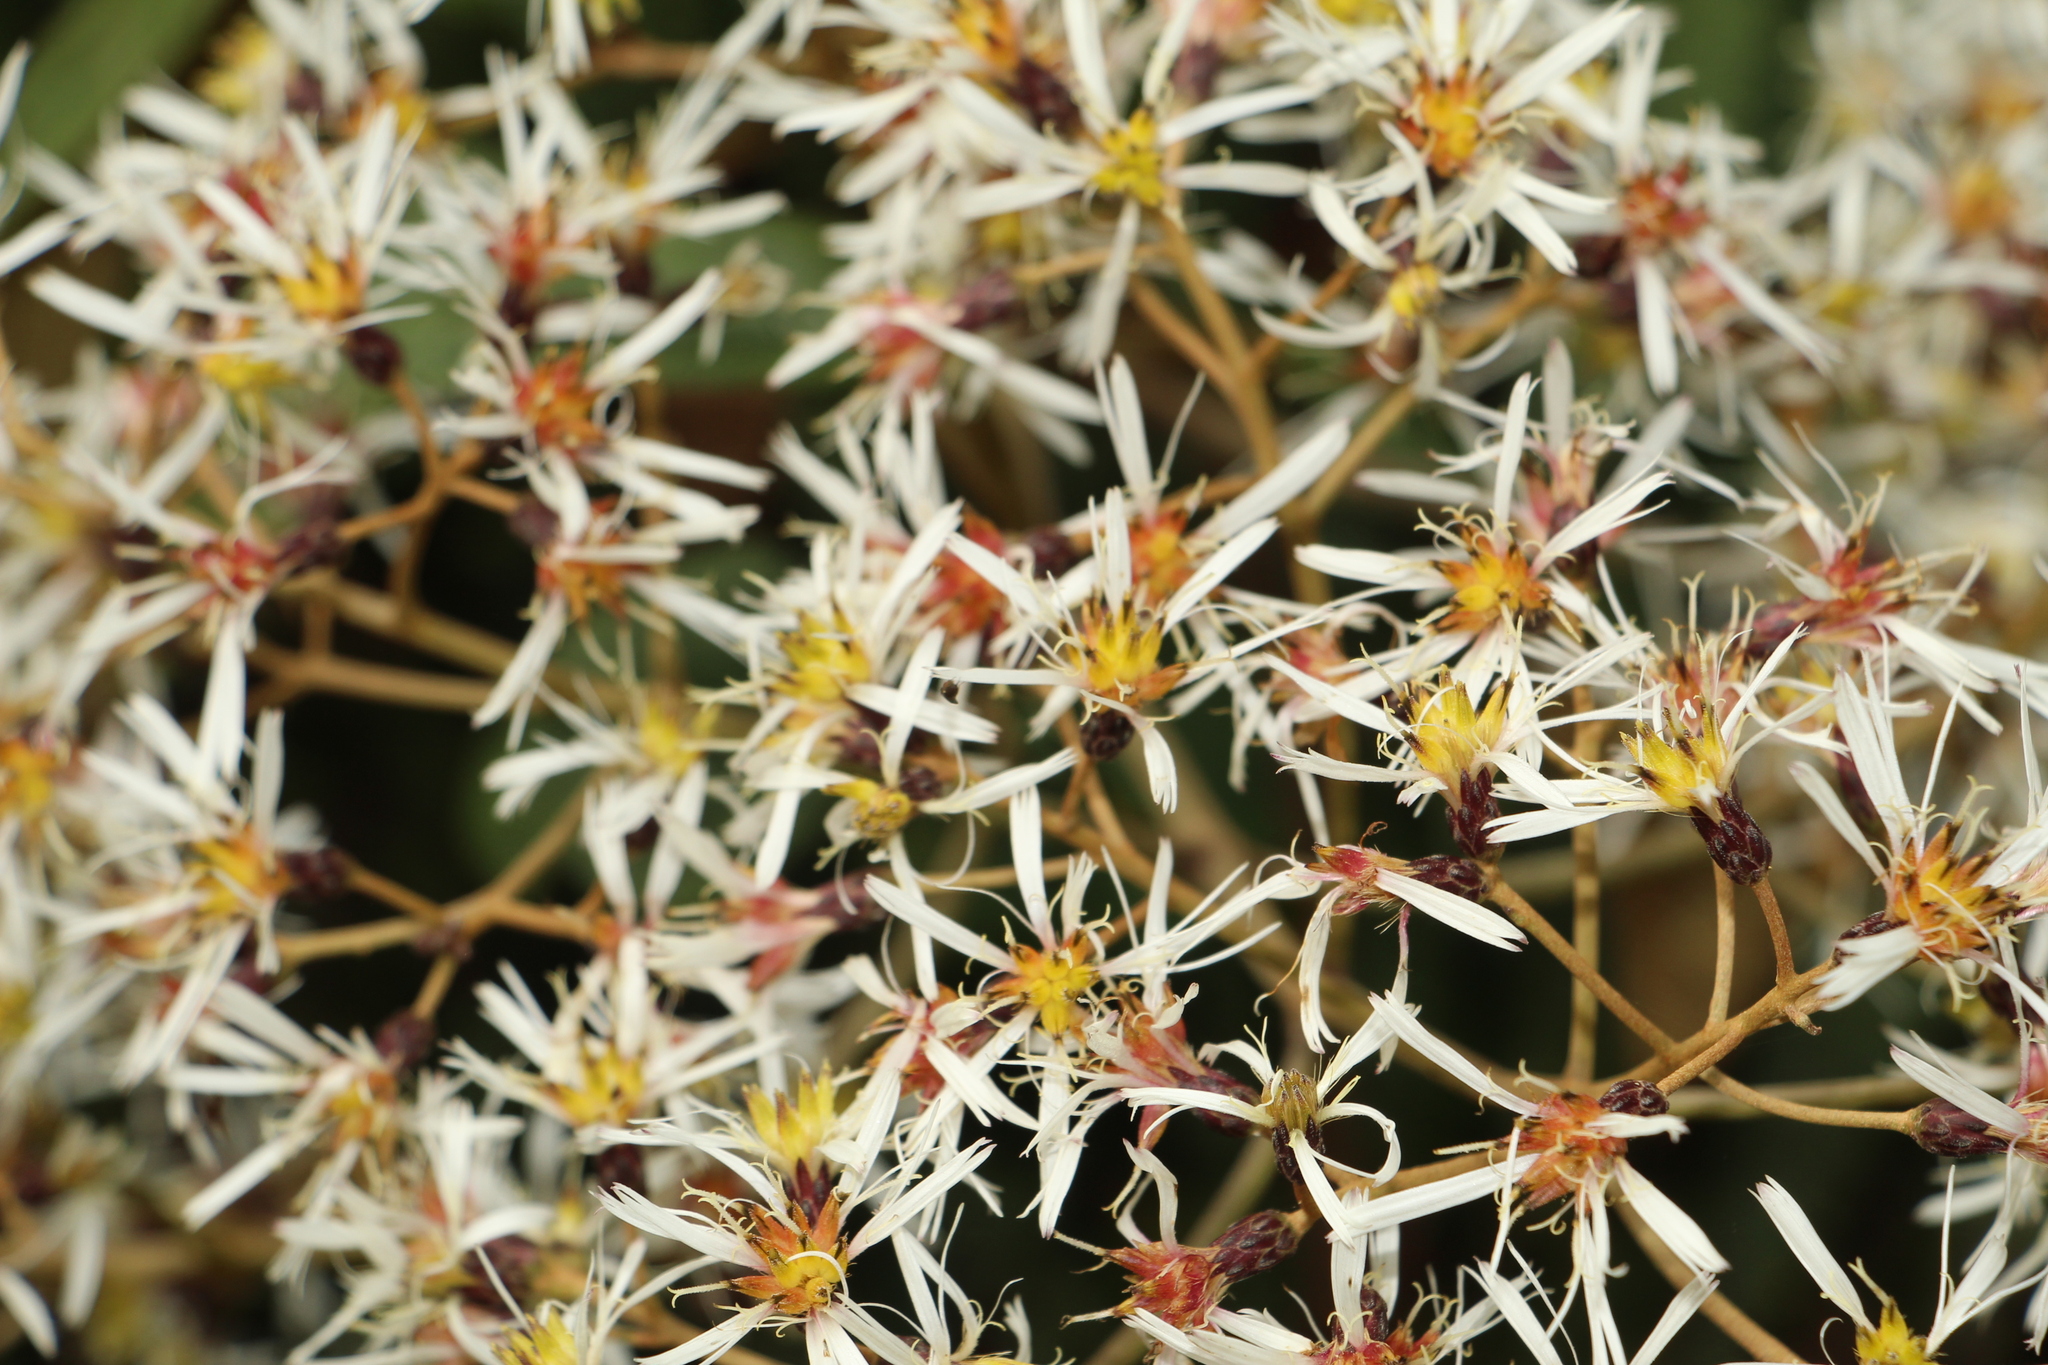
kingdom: Plantae
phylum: Tracheophyta
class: Magnoliopsida
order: Asterales
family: Asteraceae
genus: Munnozia
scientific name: Munnozia jussieui
